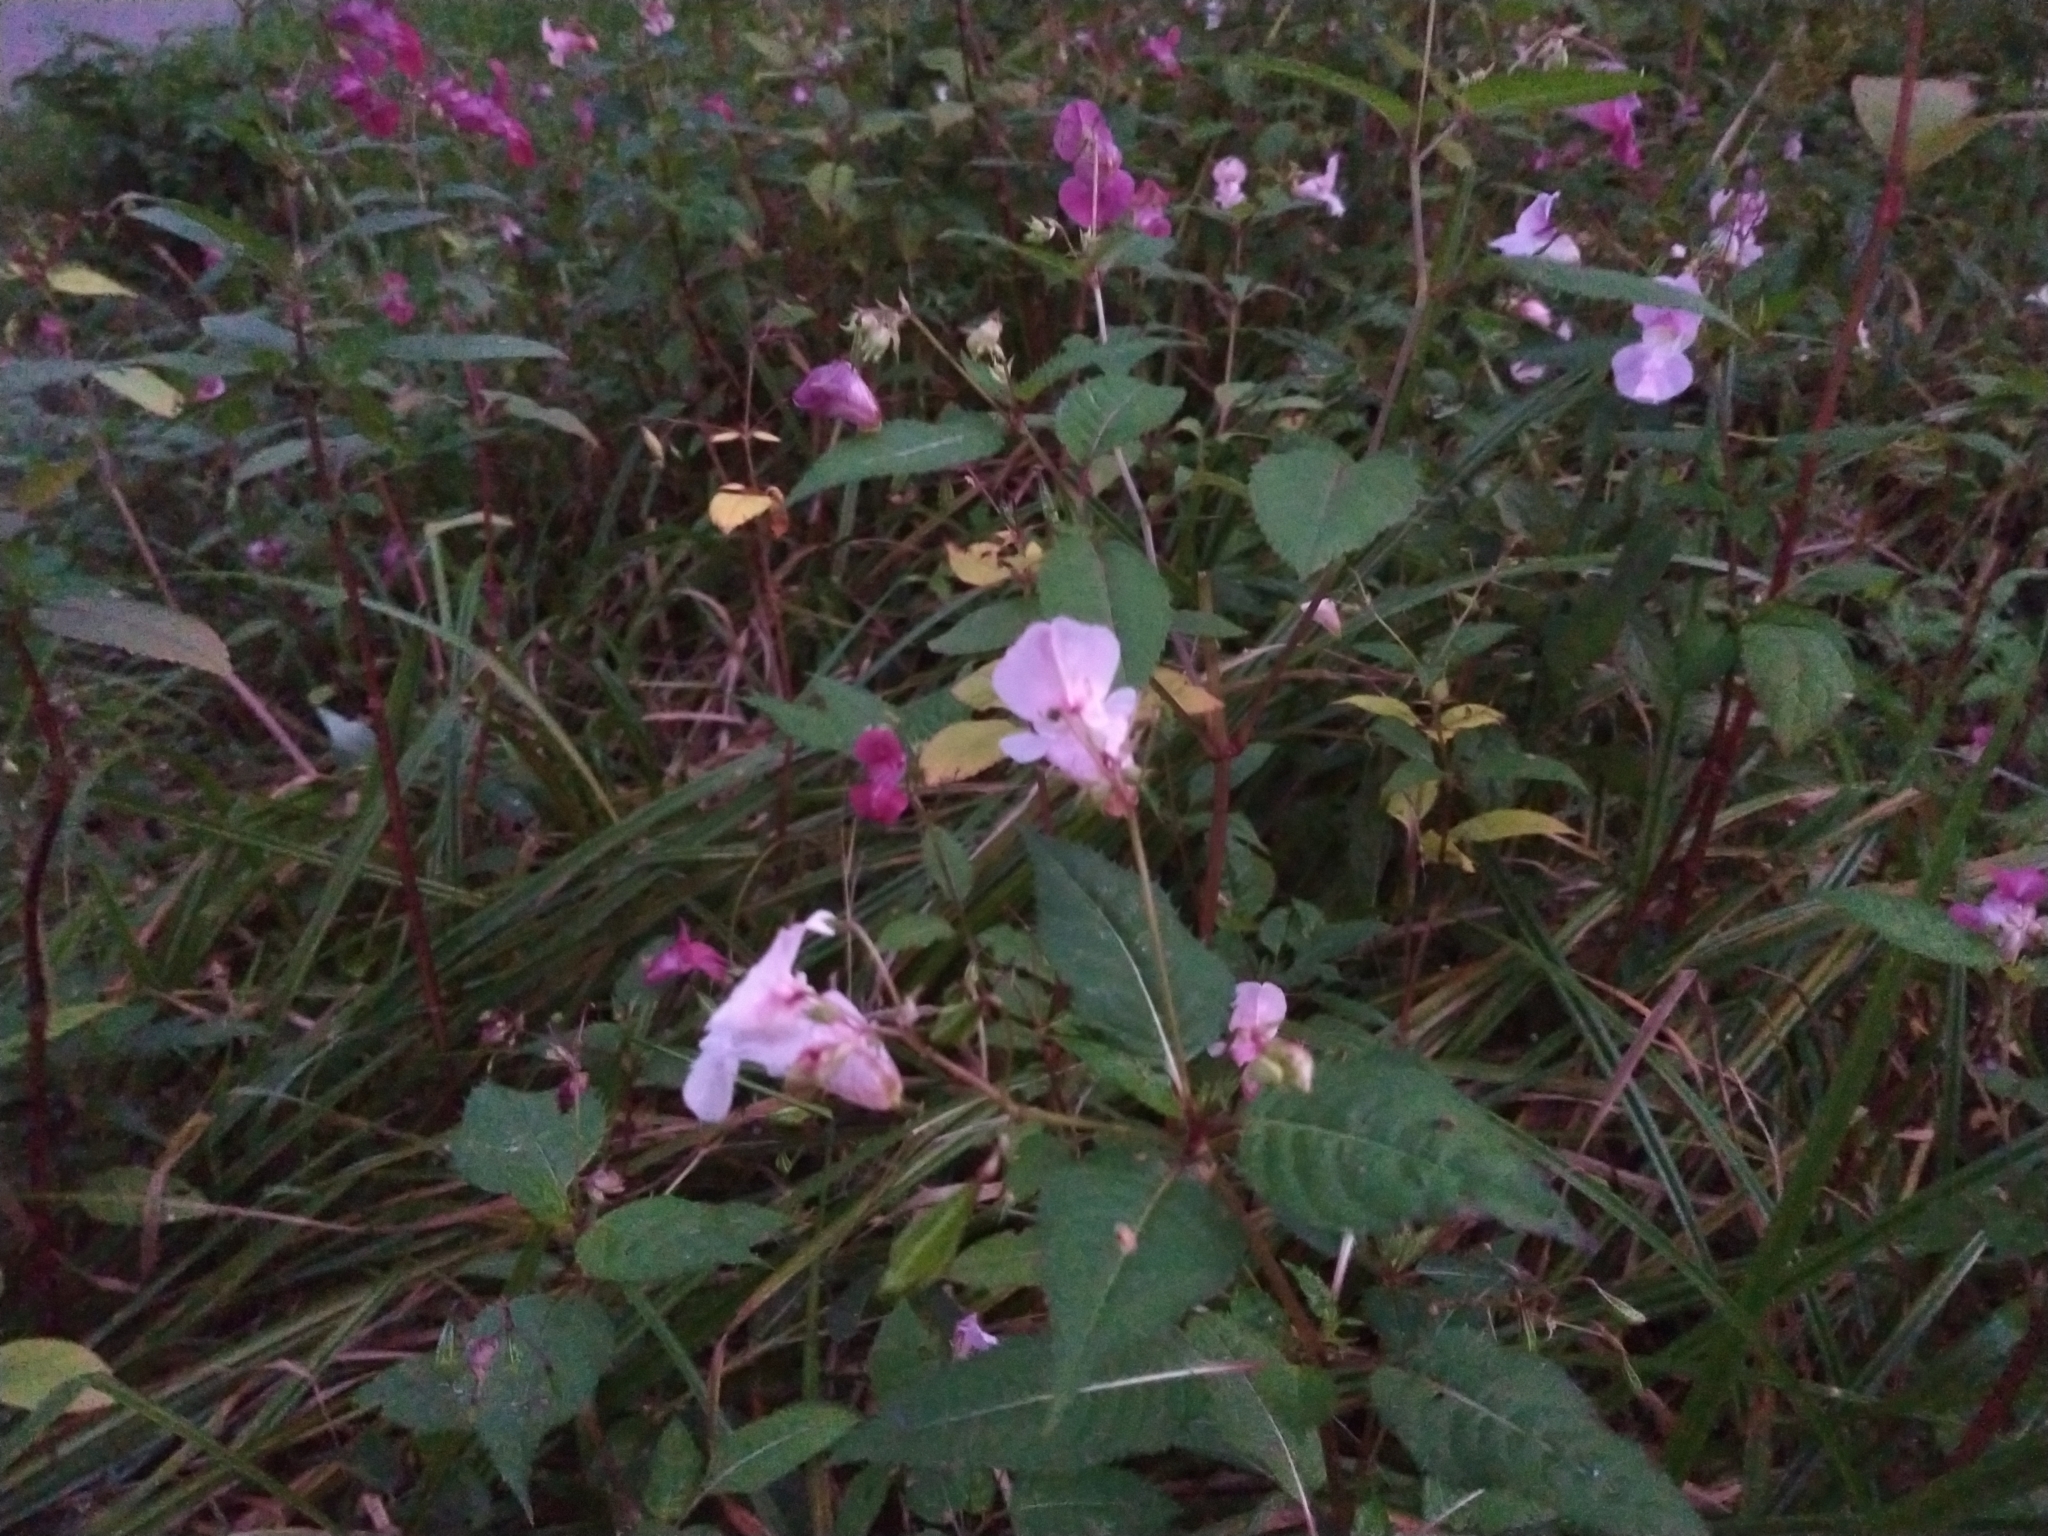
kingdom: Plantae
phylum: Tracheophyta
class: Magnoliopsida
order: Ericales
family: Balsaminaceae
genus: Impatiens
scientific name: Impatiens glandulifera
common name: Himalayan balsam
